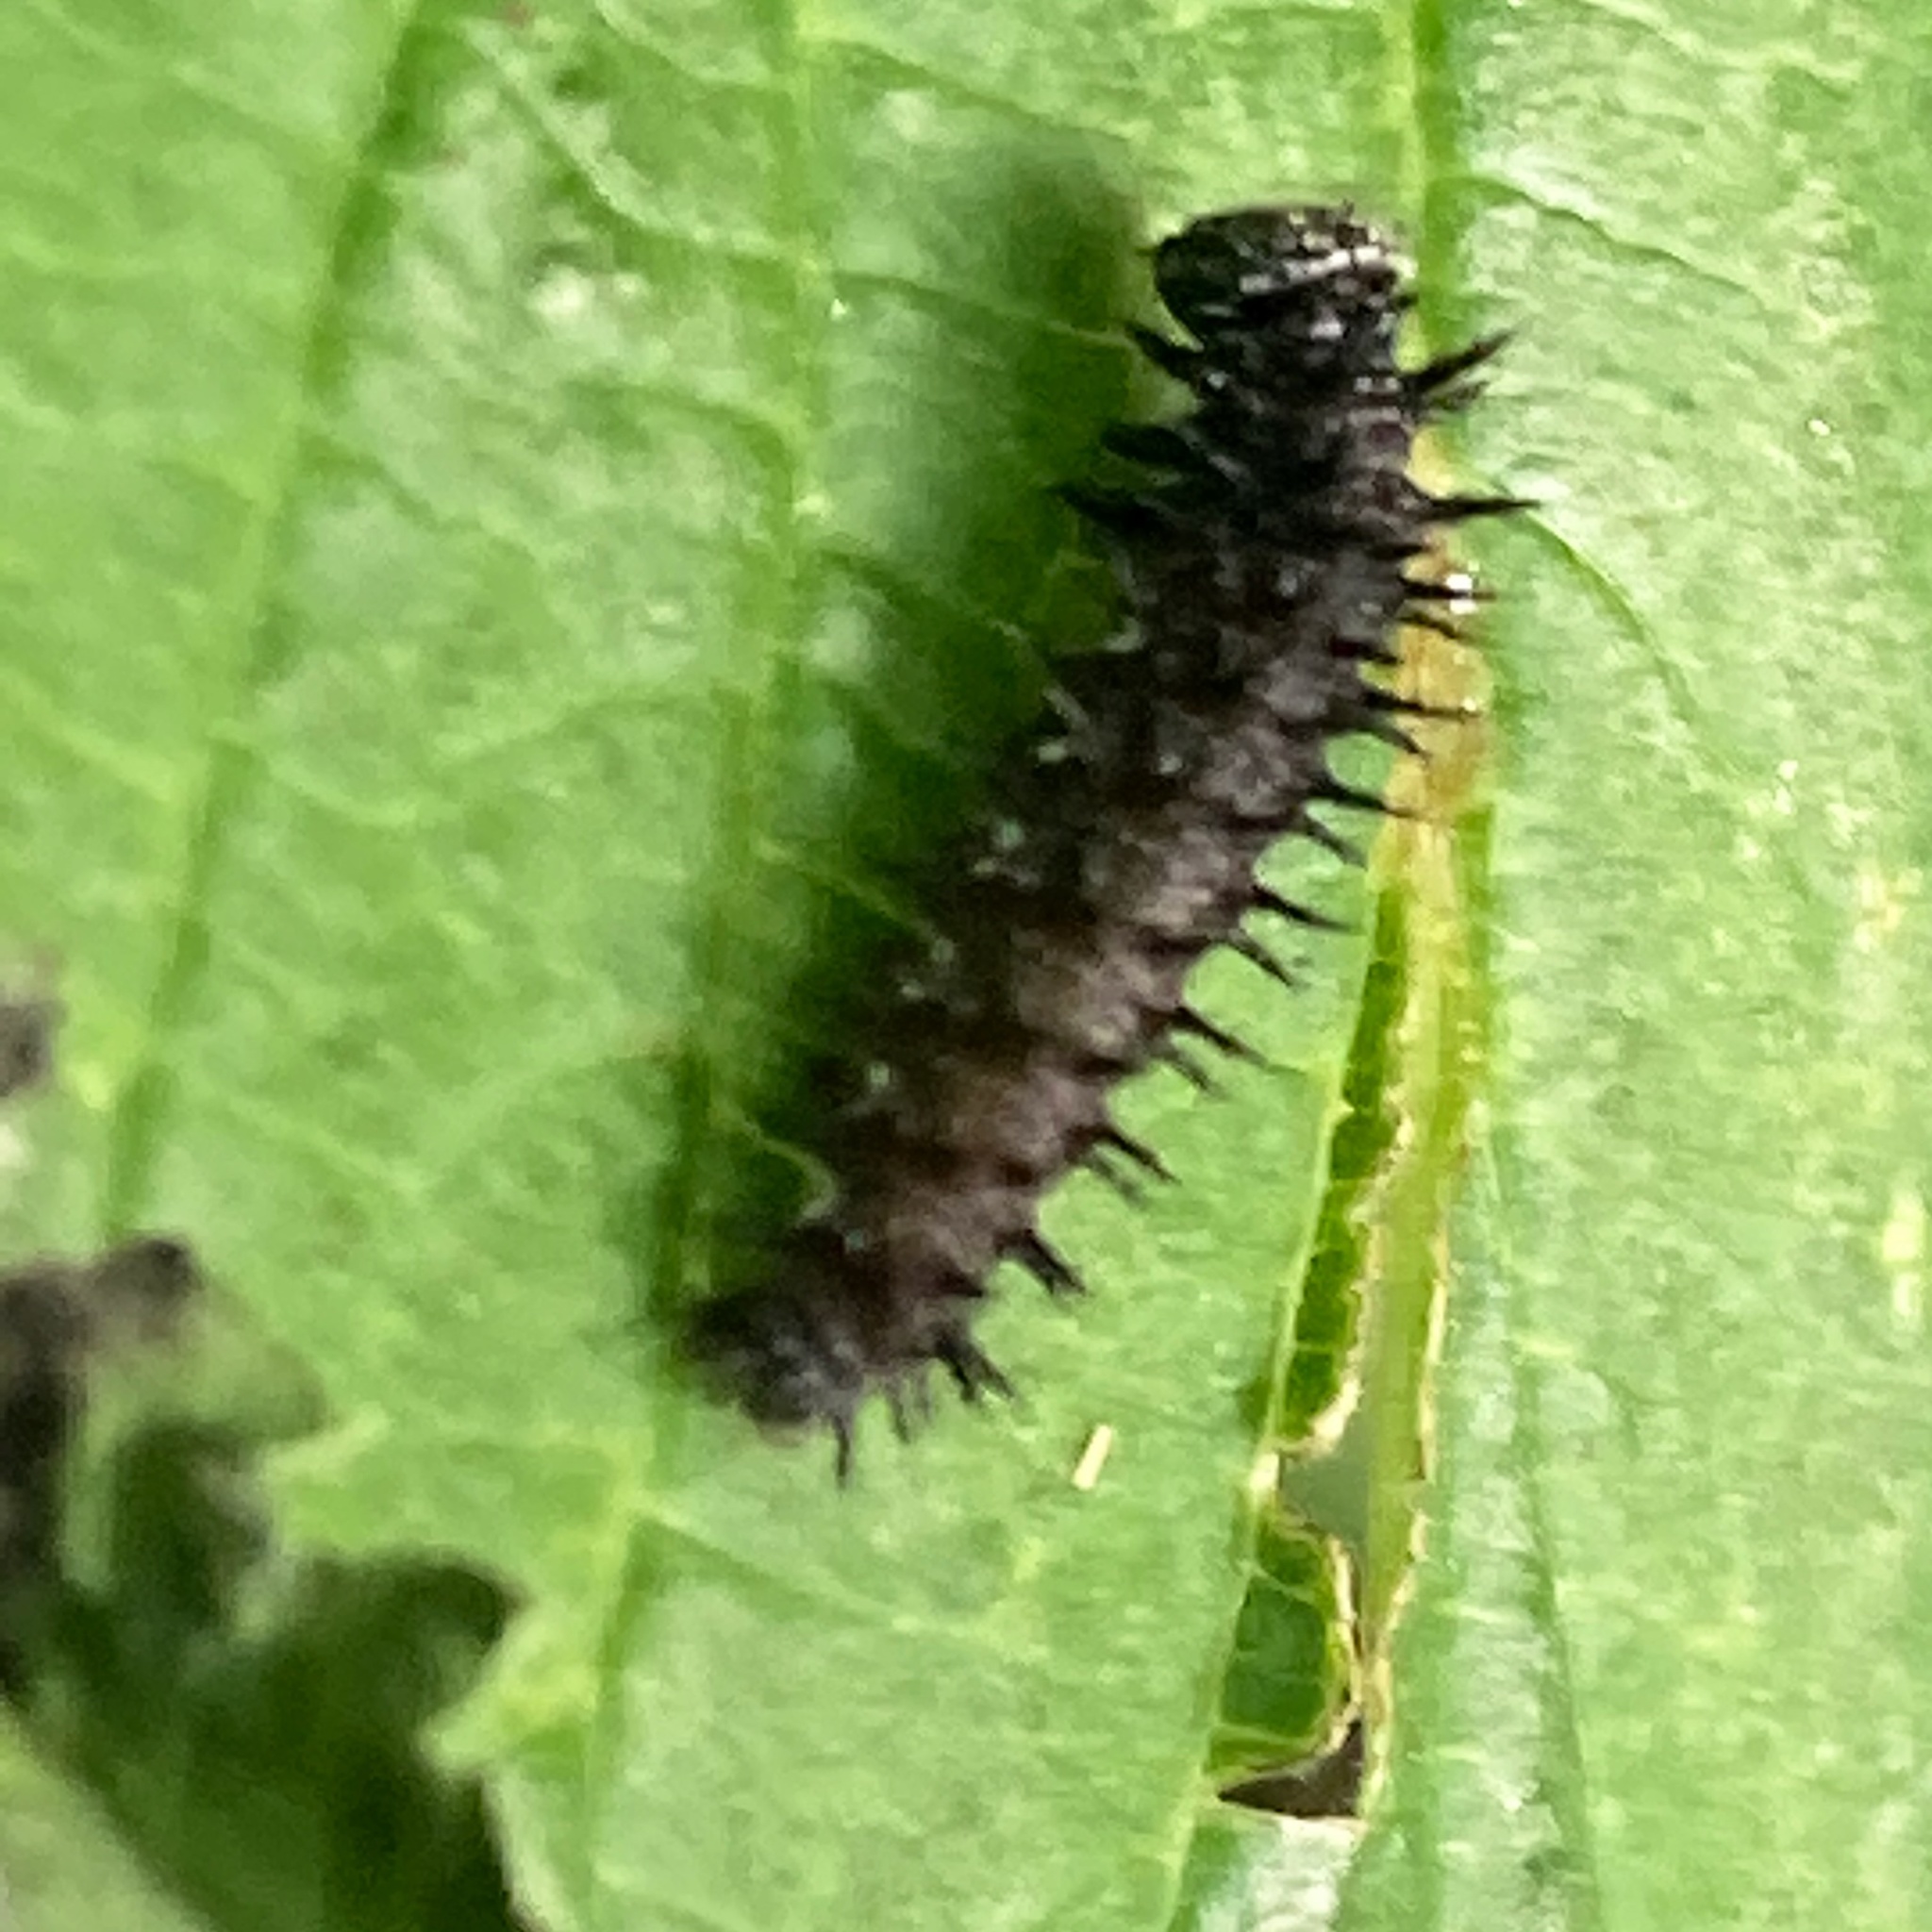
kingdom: Animalia
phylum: Arthropoda
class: Insecta
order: Lepidoptera
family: Nymphalidae
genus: Vanessa
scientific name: Vanessa atalanta
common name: Red admiral
